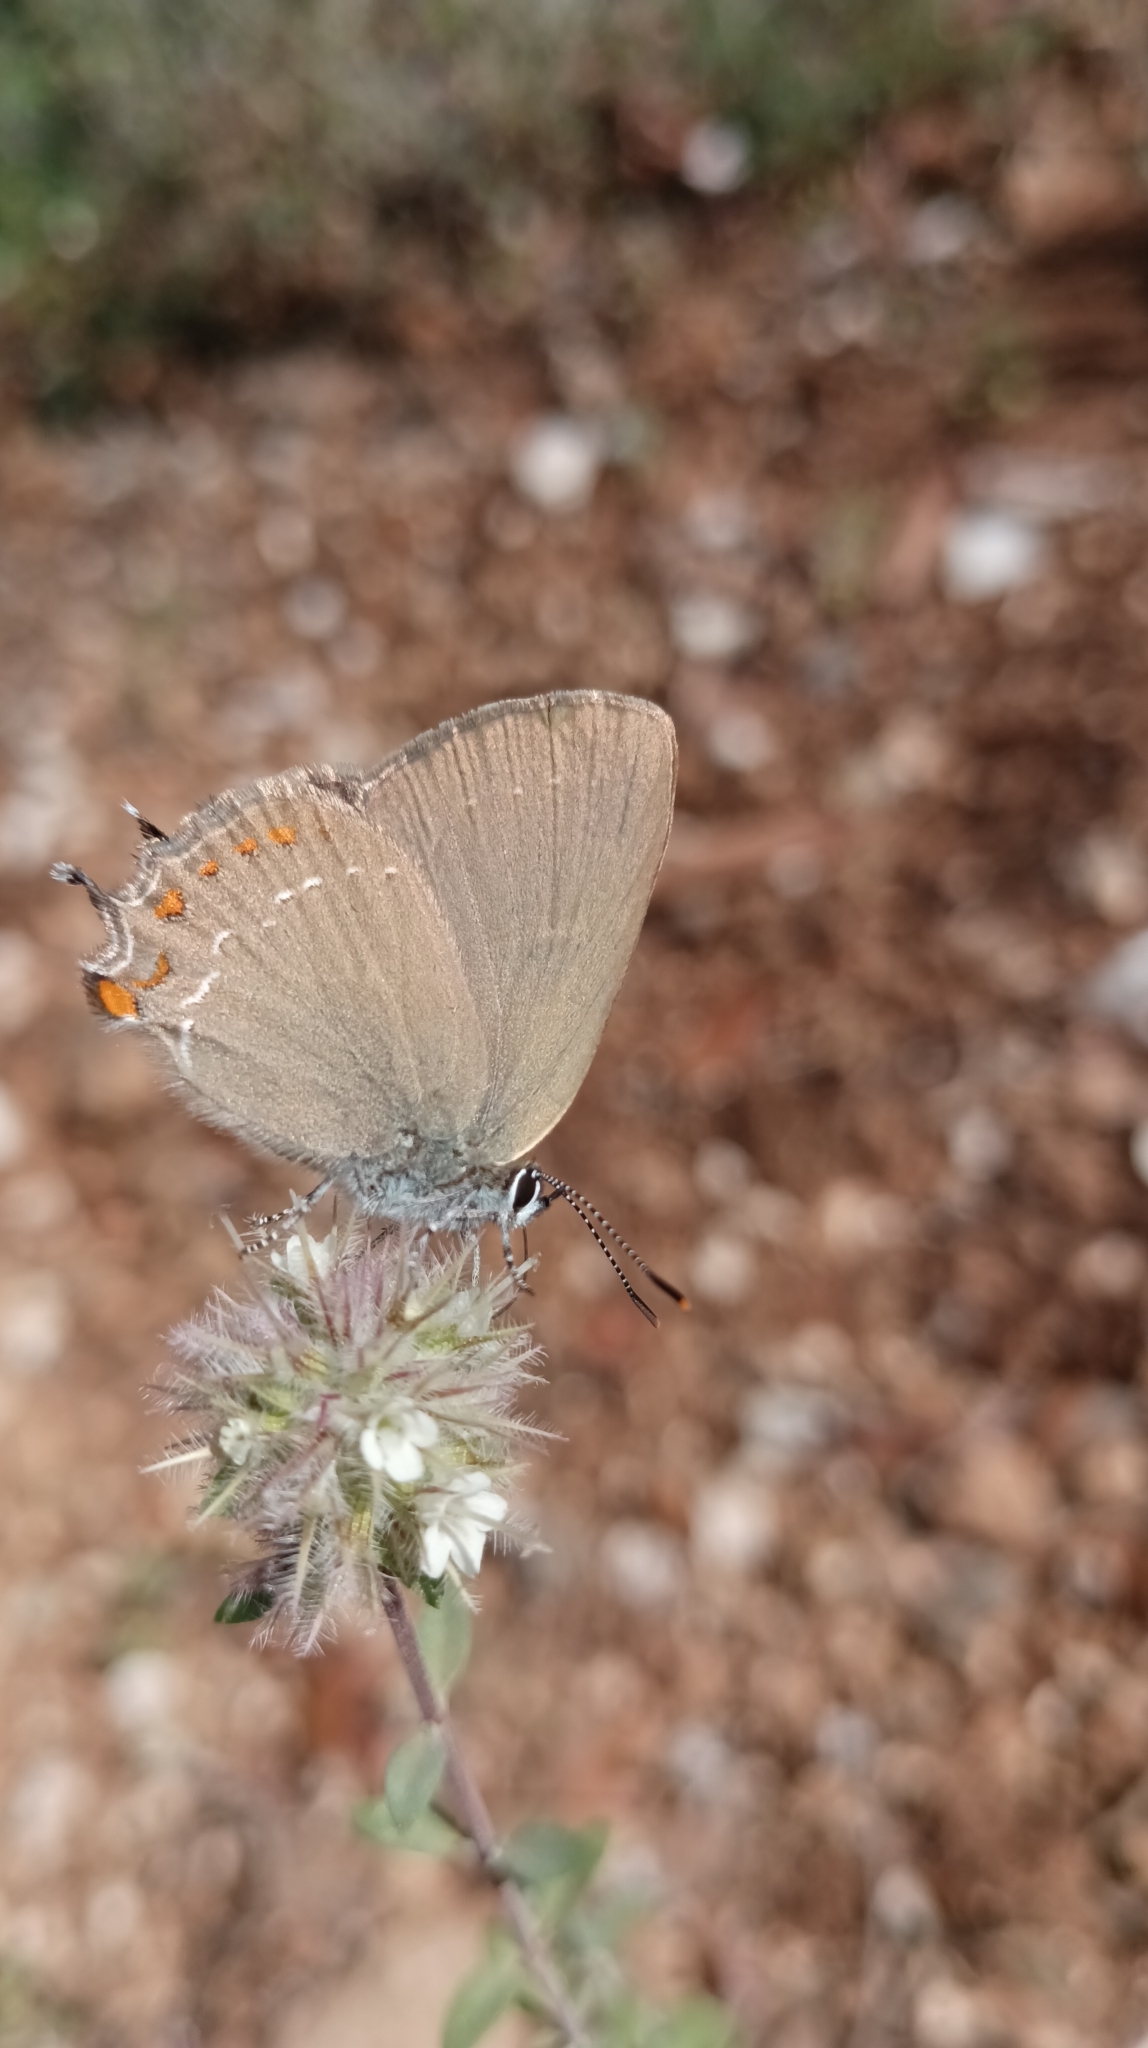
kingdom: Animalia
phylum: Arthropoda
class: Insecta
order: Lepidoptera
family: Lycaenidae
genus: Fixsenia
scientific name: Fixsenia esculi
